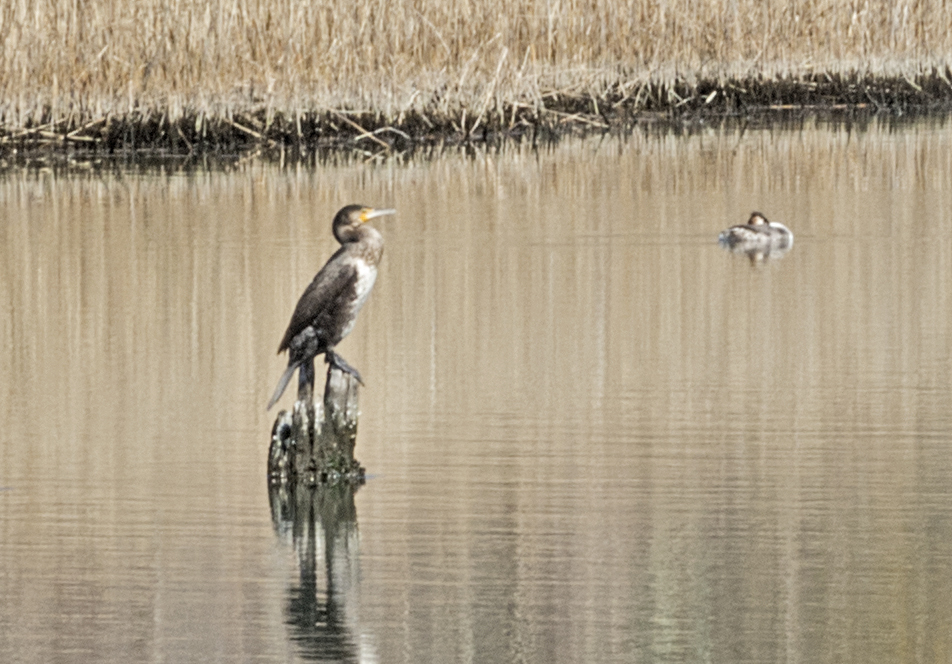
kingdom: Animalia
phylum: Chordata
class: Aves
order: Suliformes
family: Phalacrocoracidae
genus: Phalacrocorax
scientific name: Phalacrocorax carbo
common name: Great cormorant
